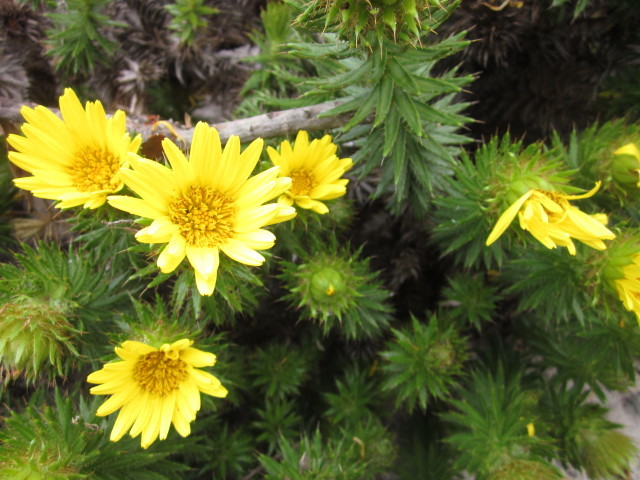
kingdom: Plantae
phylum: Tracheophyta
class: Magnoliopsida
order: Asterales
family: Asteraceae
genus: Cullumia
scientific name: Cullumia carlinoides
